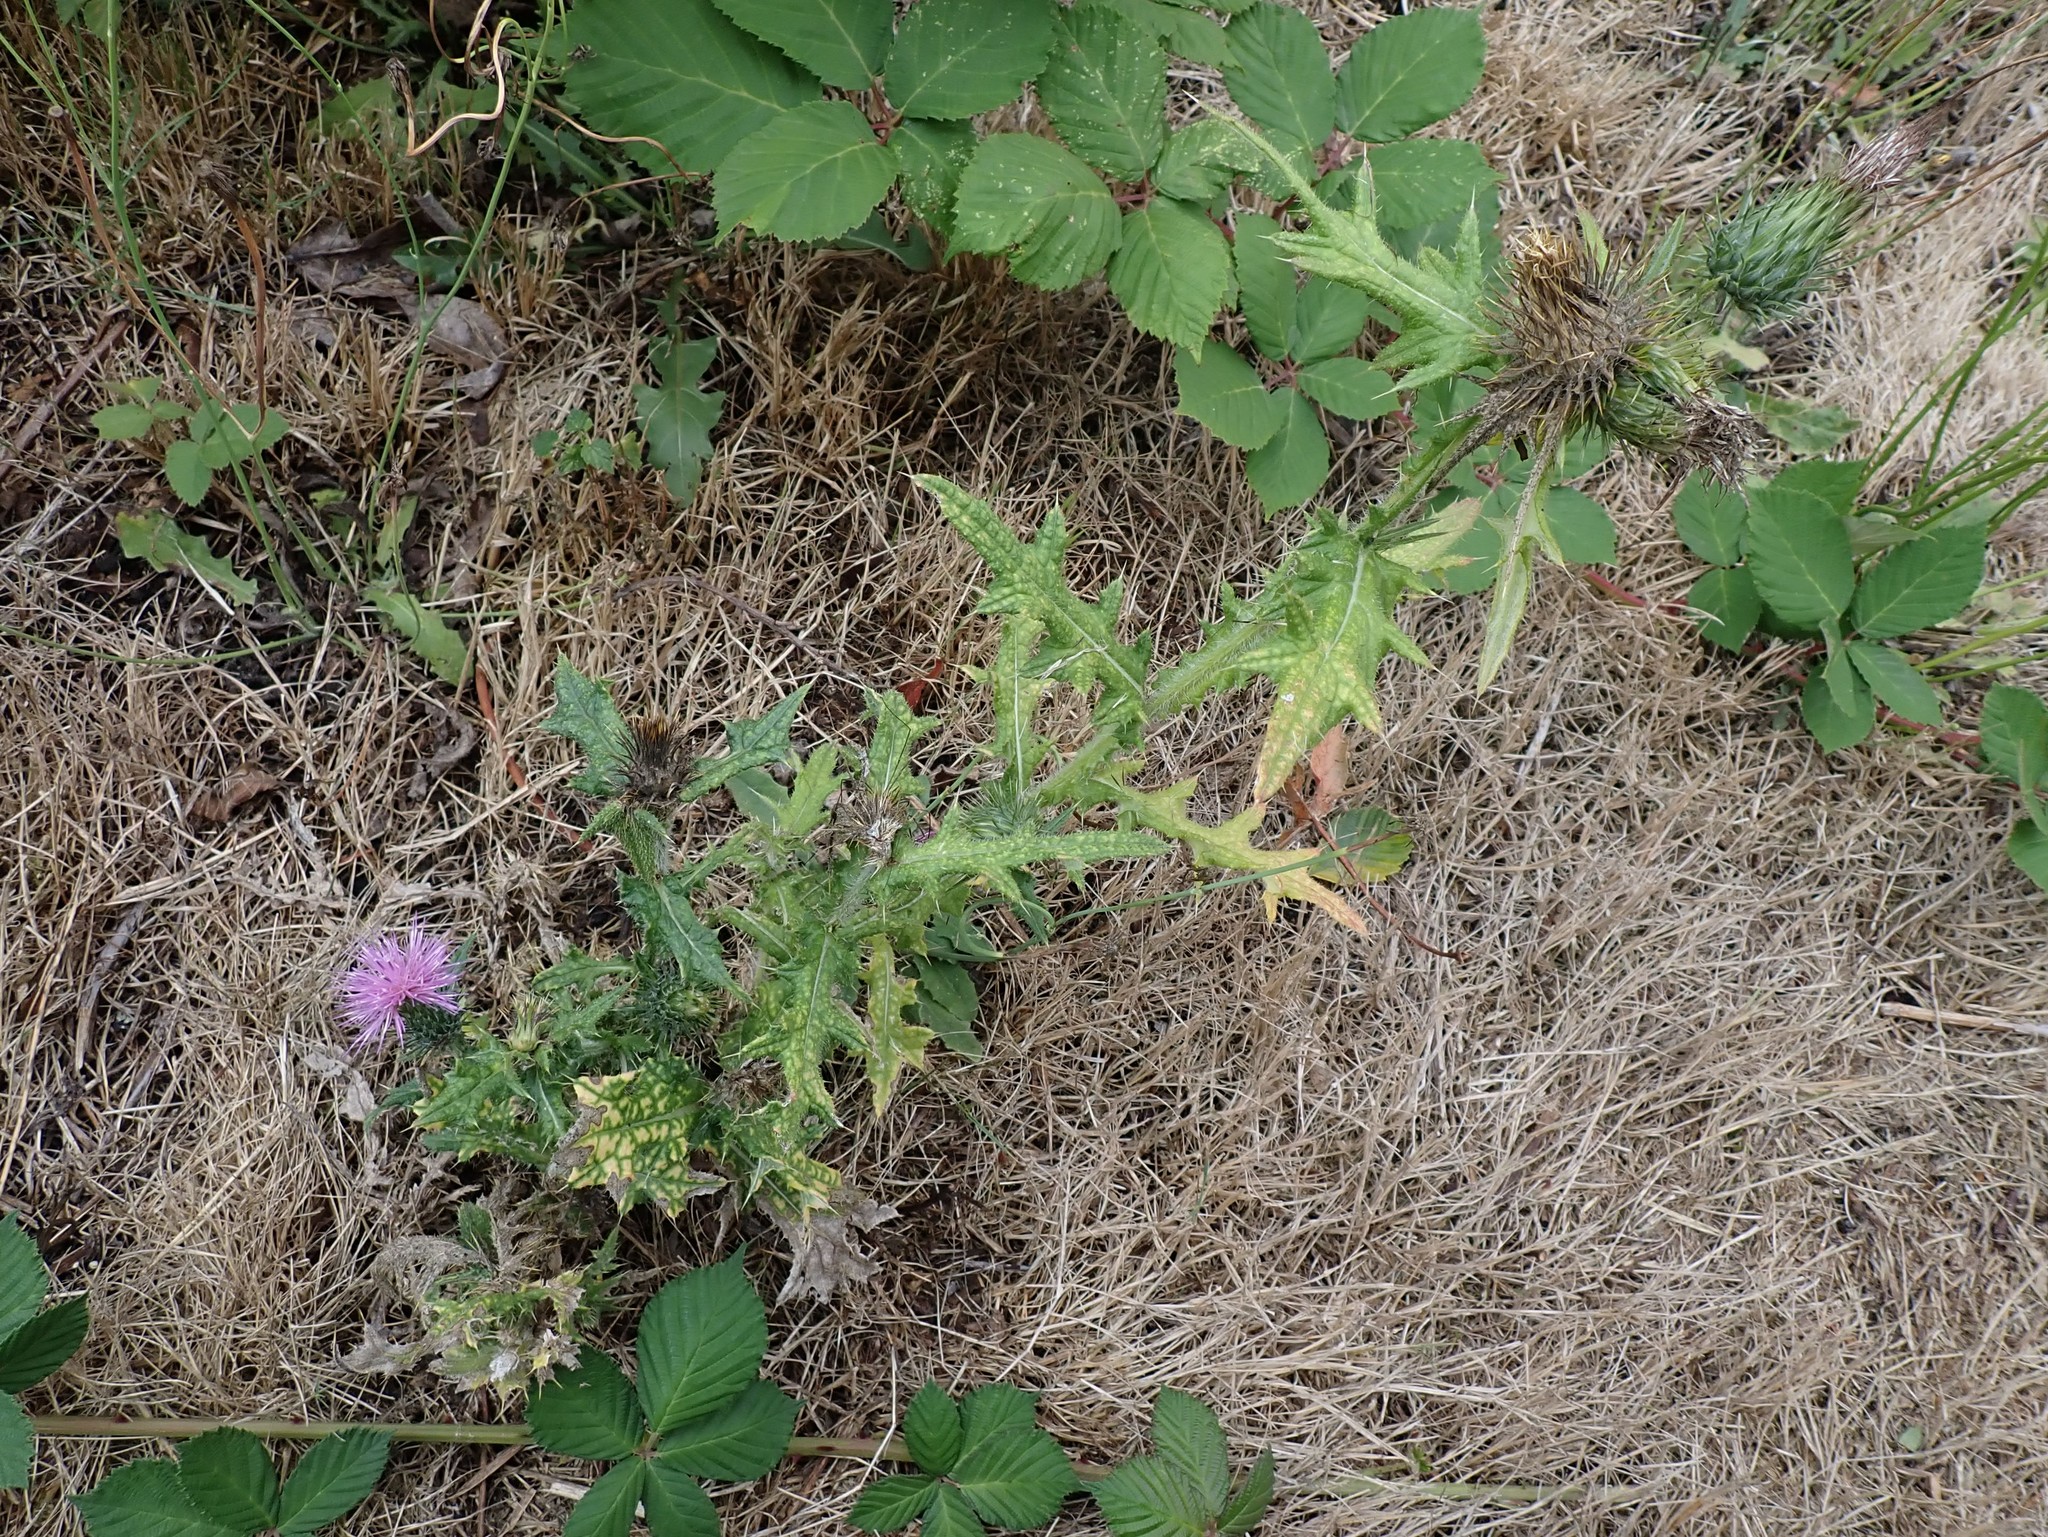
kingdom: Plantae
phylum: Tracheophyta
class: Magnoliopsida
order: Asterales
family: Asteraceae
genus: Cirsium
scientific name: Cirsium vulgare
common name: Bull thistle
